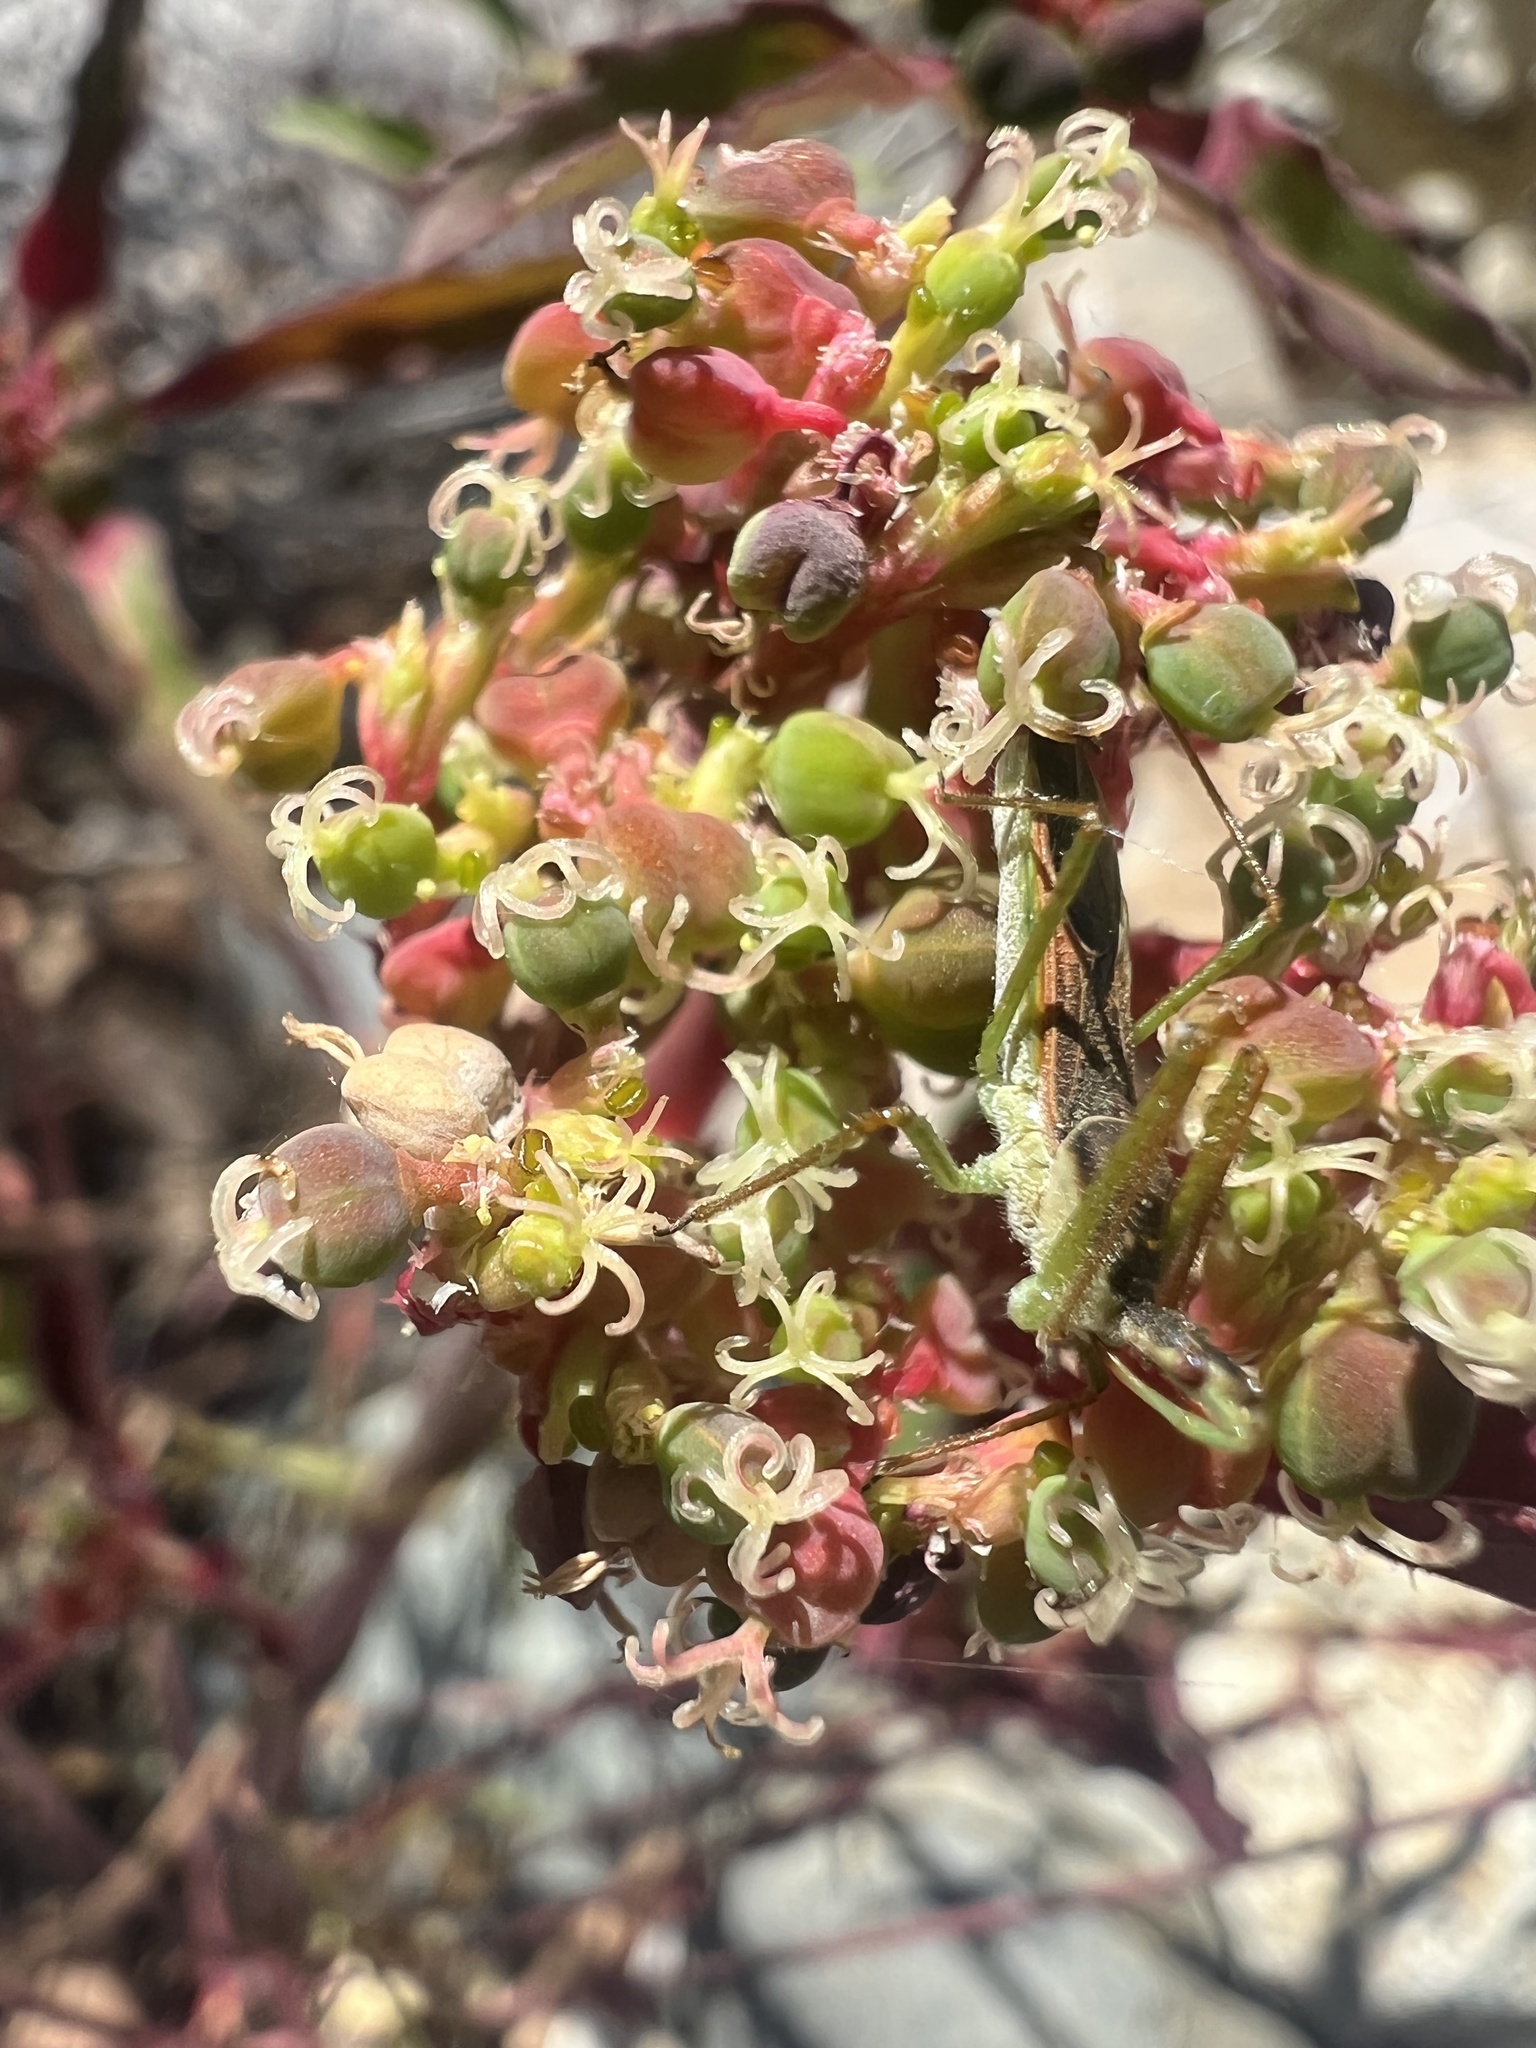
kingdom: Animalia
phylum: Arthropoda
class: Insecta
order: Hemiptera
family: Reduviidae
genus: Zelus
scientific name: Zelus renardii
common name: Assassin bug
